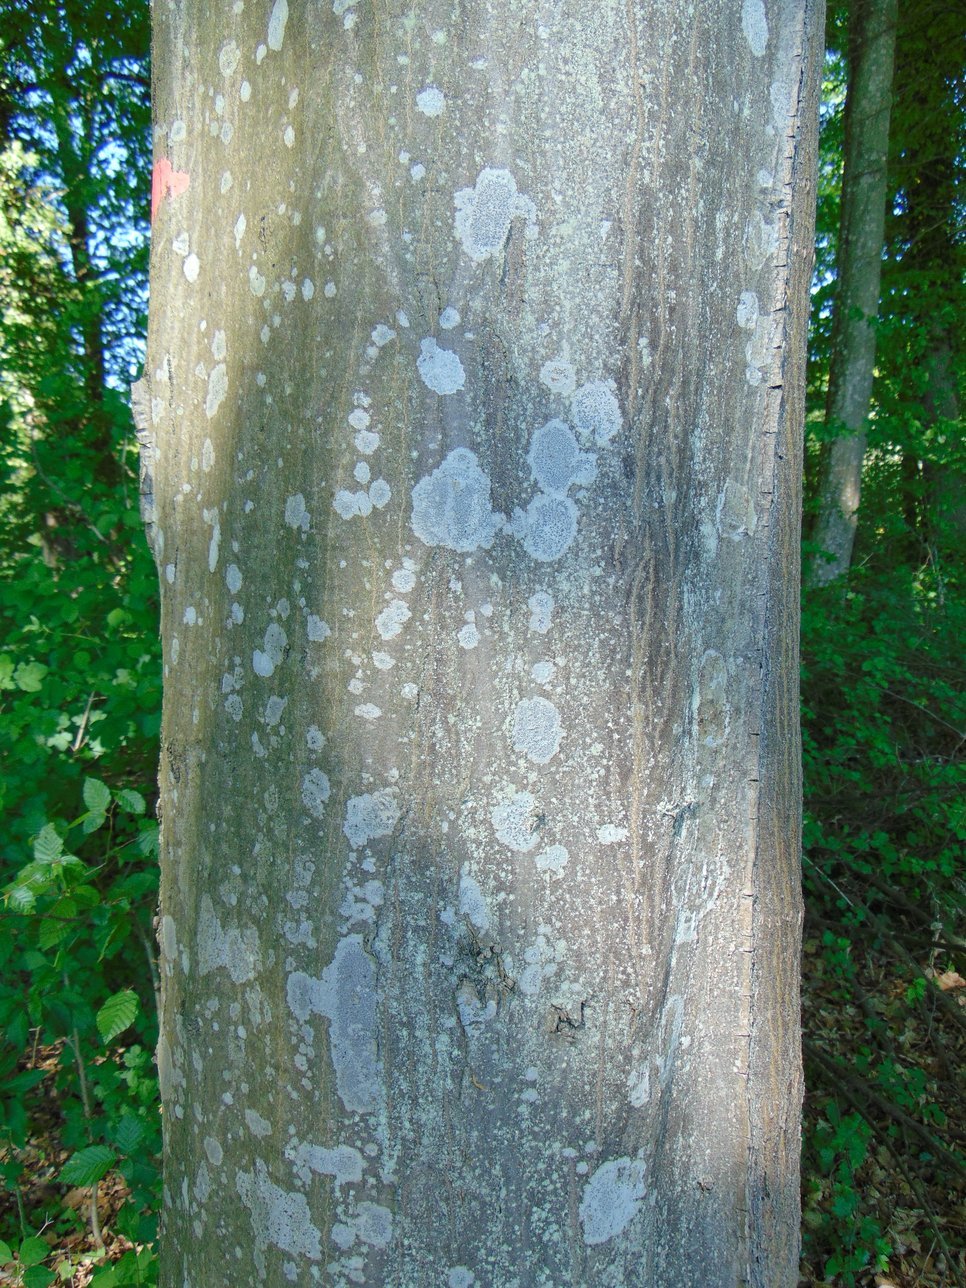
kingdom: Plantae
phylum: Tracheophyta
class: Magnoliopsida
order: Fagales
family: Betulaceae
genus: Carpinus
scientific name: Carpinus betulus
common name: Hornbeam
